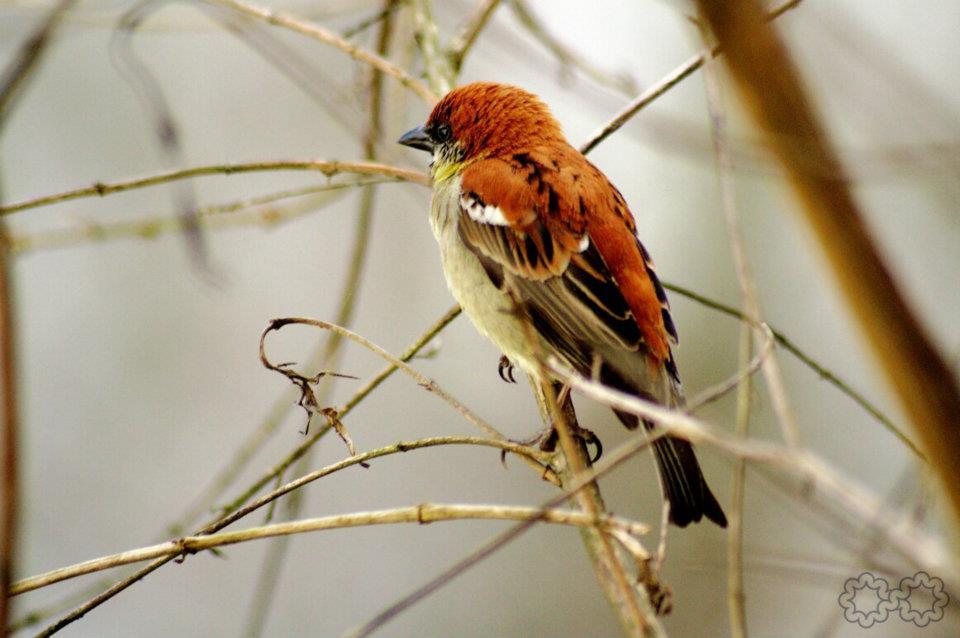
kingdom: Animalia
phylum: Chordata
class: Aves
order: Passeriformes
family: Passeridae
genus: Passer
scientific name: Passer cinnamomeus
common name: Russet sparrow
